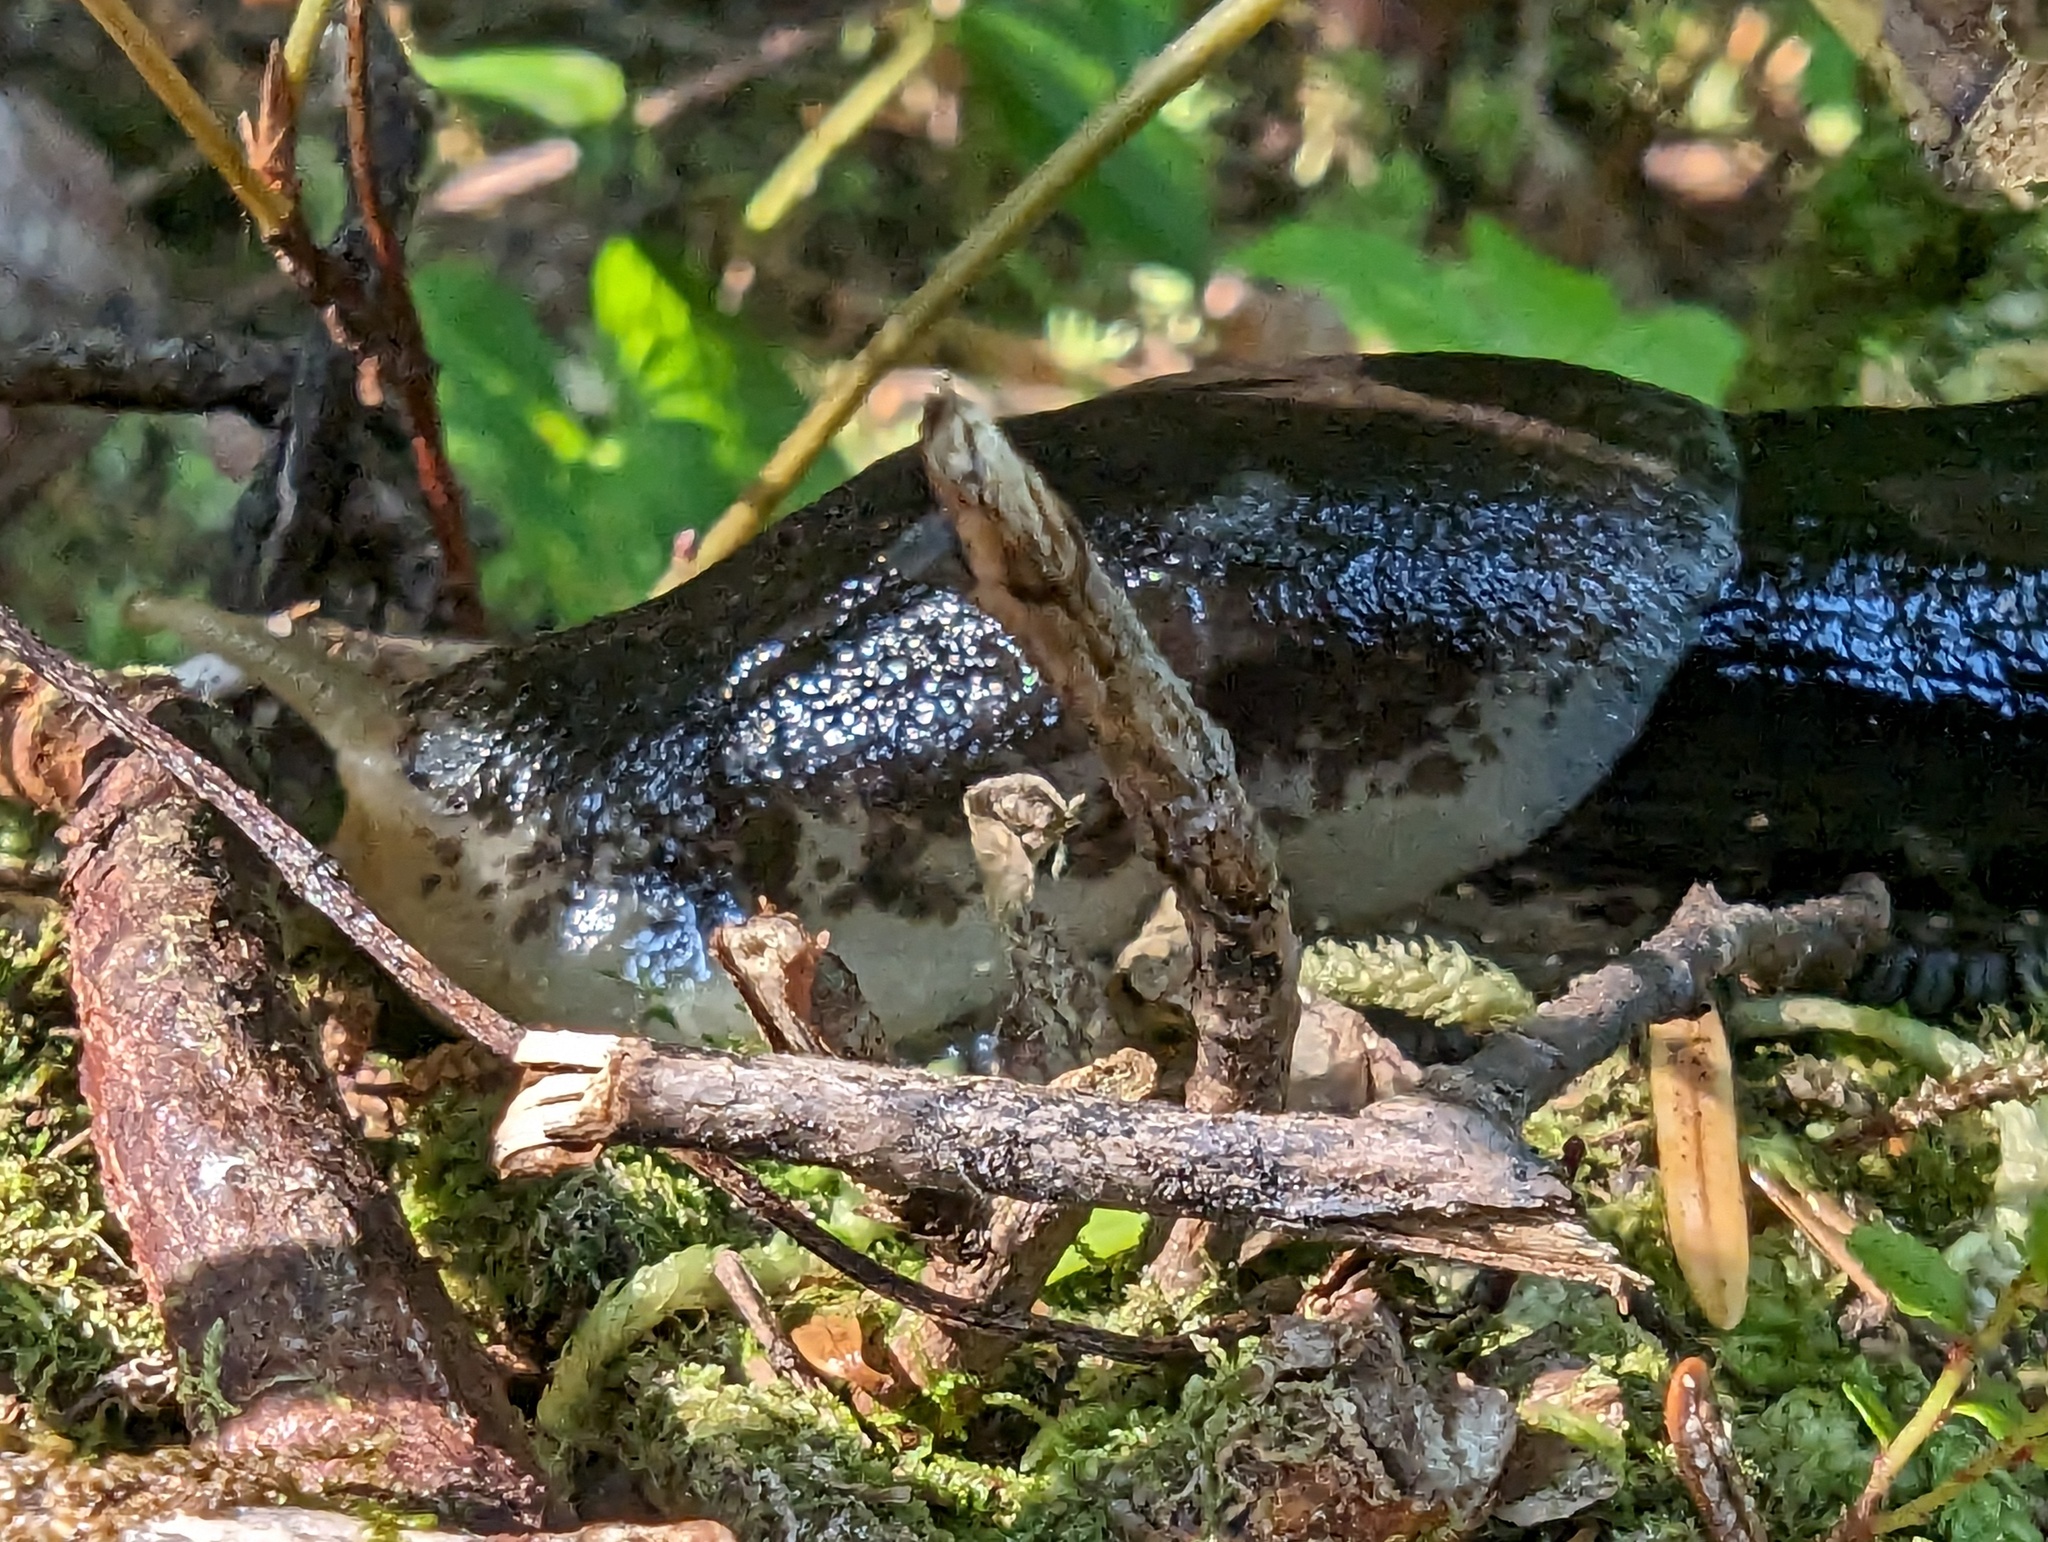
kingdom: Animalia
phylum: Mollusca
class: Gastropoda
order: Stylommatophora
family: Ariolimacidae
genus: Ariolimax
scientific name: Ariolimax columbianus
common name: Pacific banana slug
